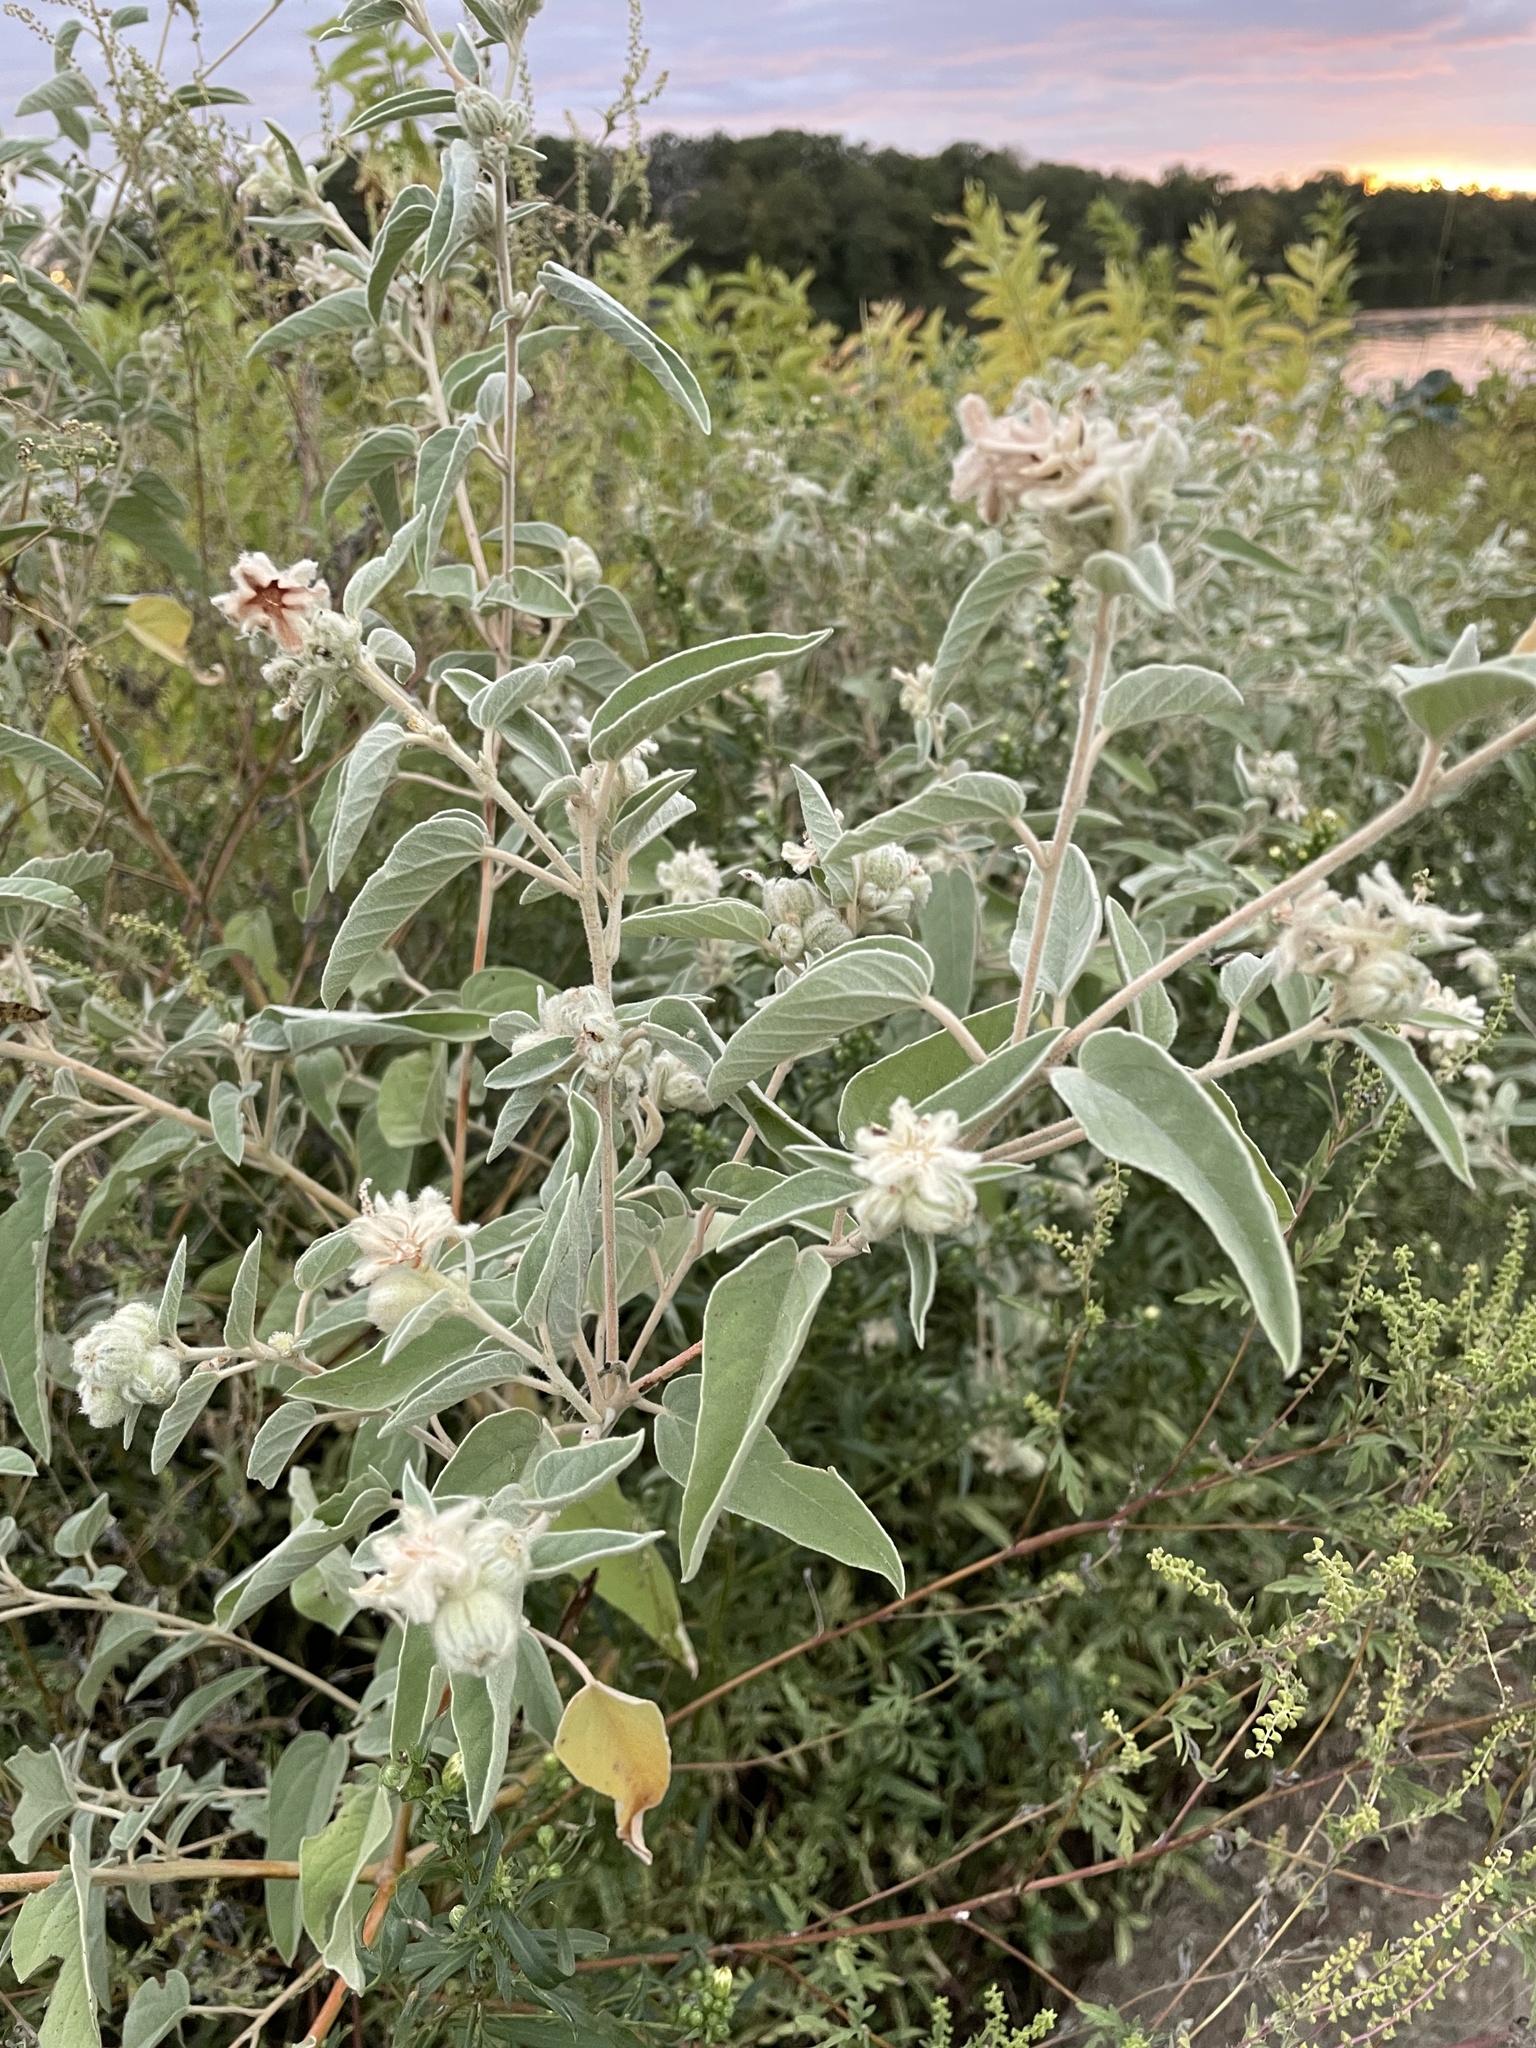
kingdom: Plantae
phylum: Tracheophyta
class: Magnoliopsida
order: Malpighiales
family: Euphorbiaceae
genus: Croton
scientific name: Croton lindheimeri
